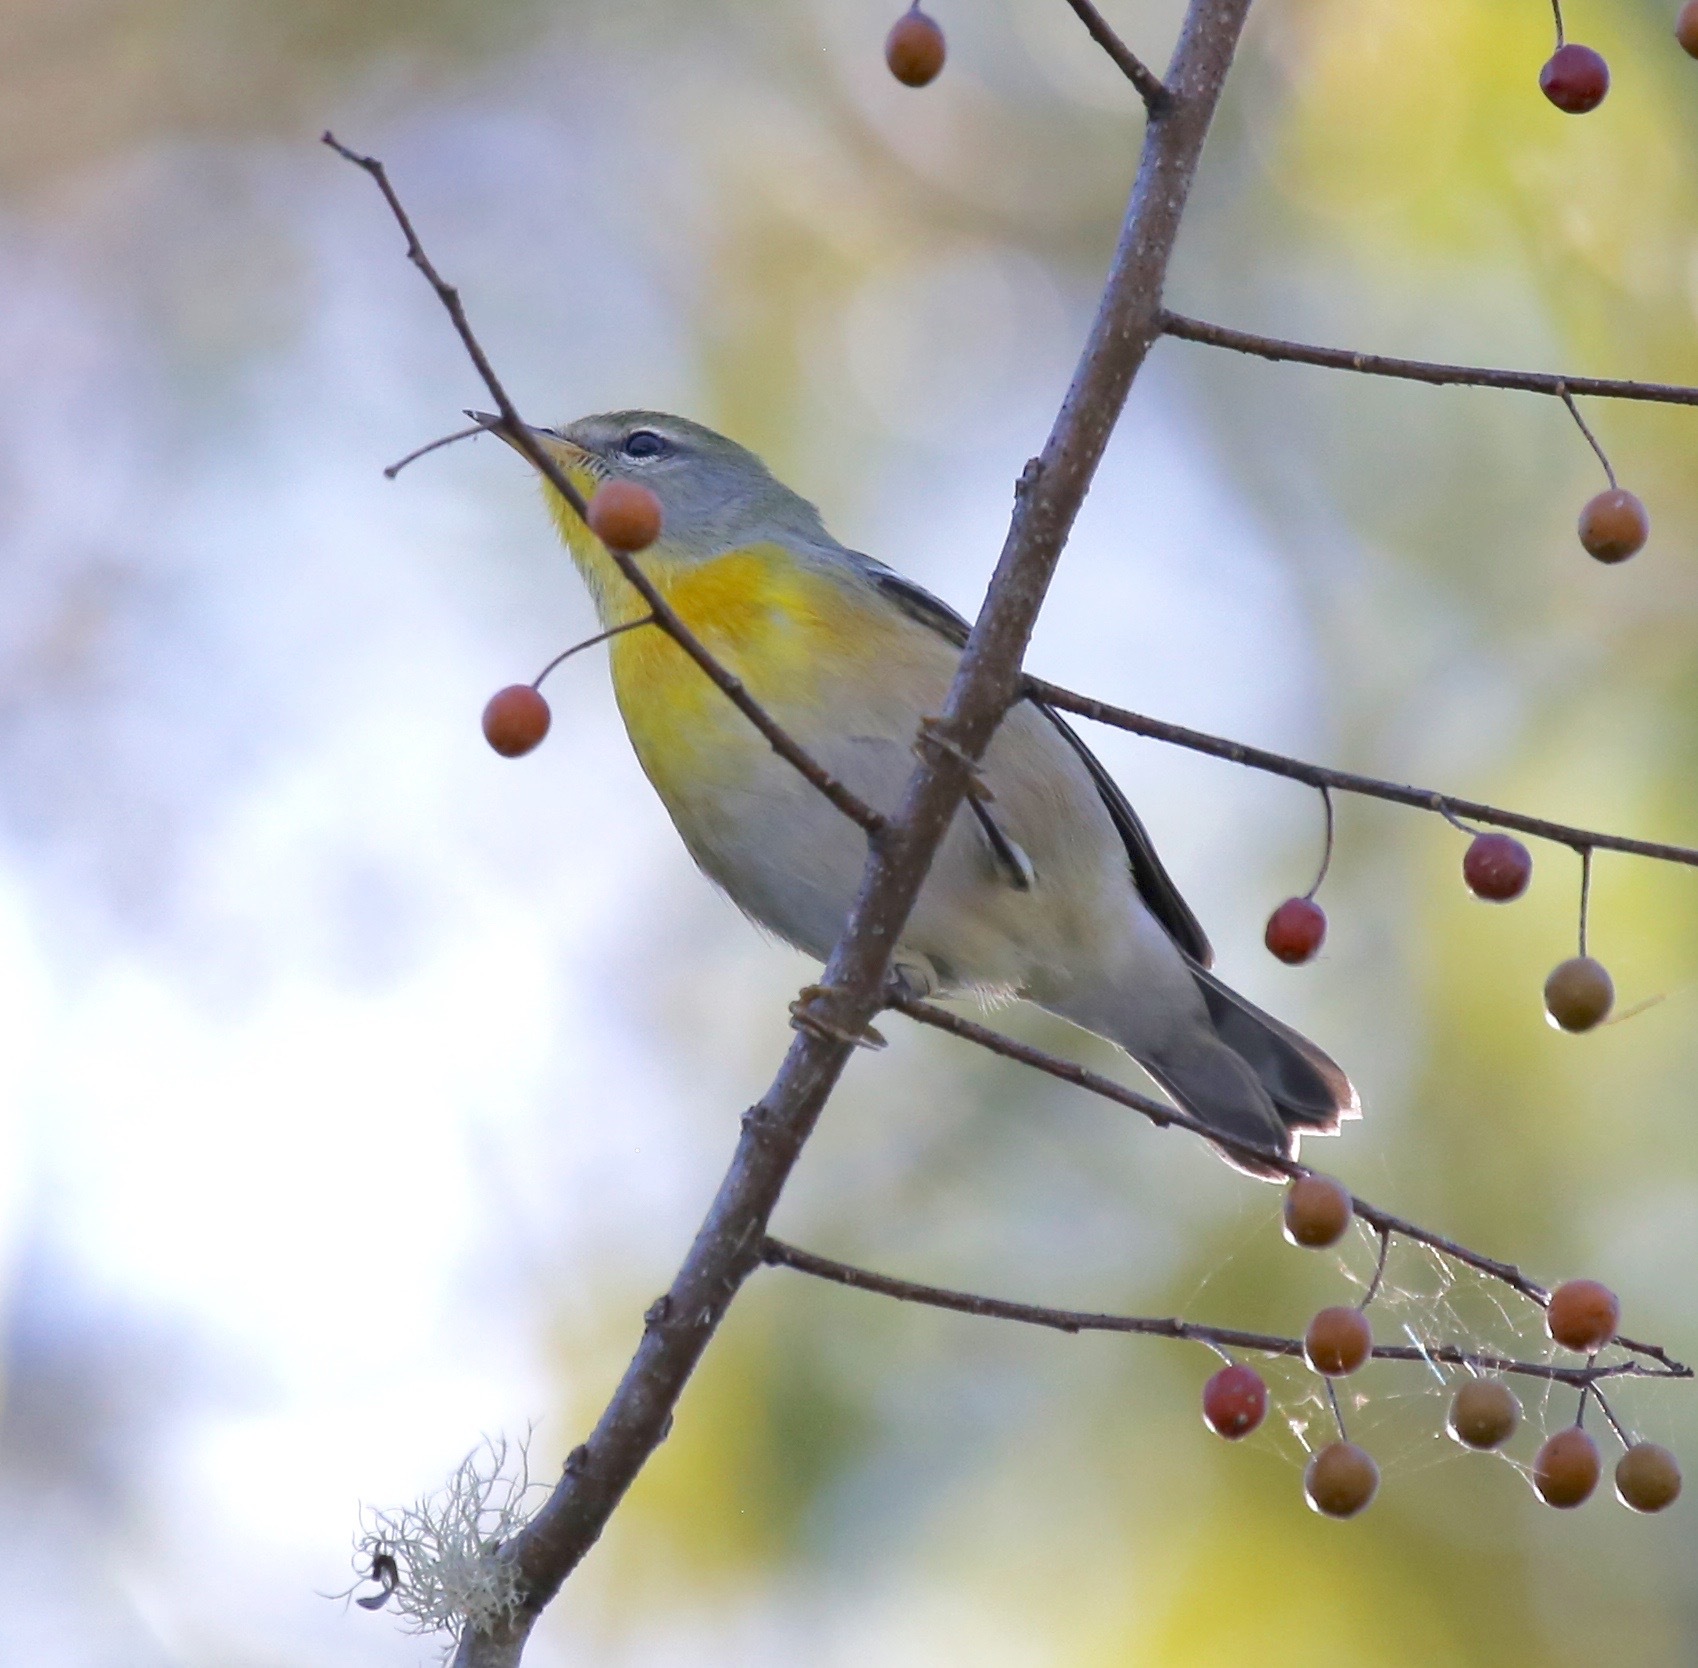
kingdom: Animalia
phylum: Chordata
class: Aves
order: Passeriformes
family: Parulidae
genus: Setophaga
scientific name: Setophaga americana
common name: Northern parula
